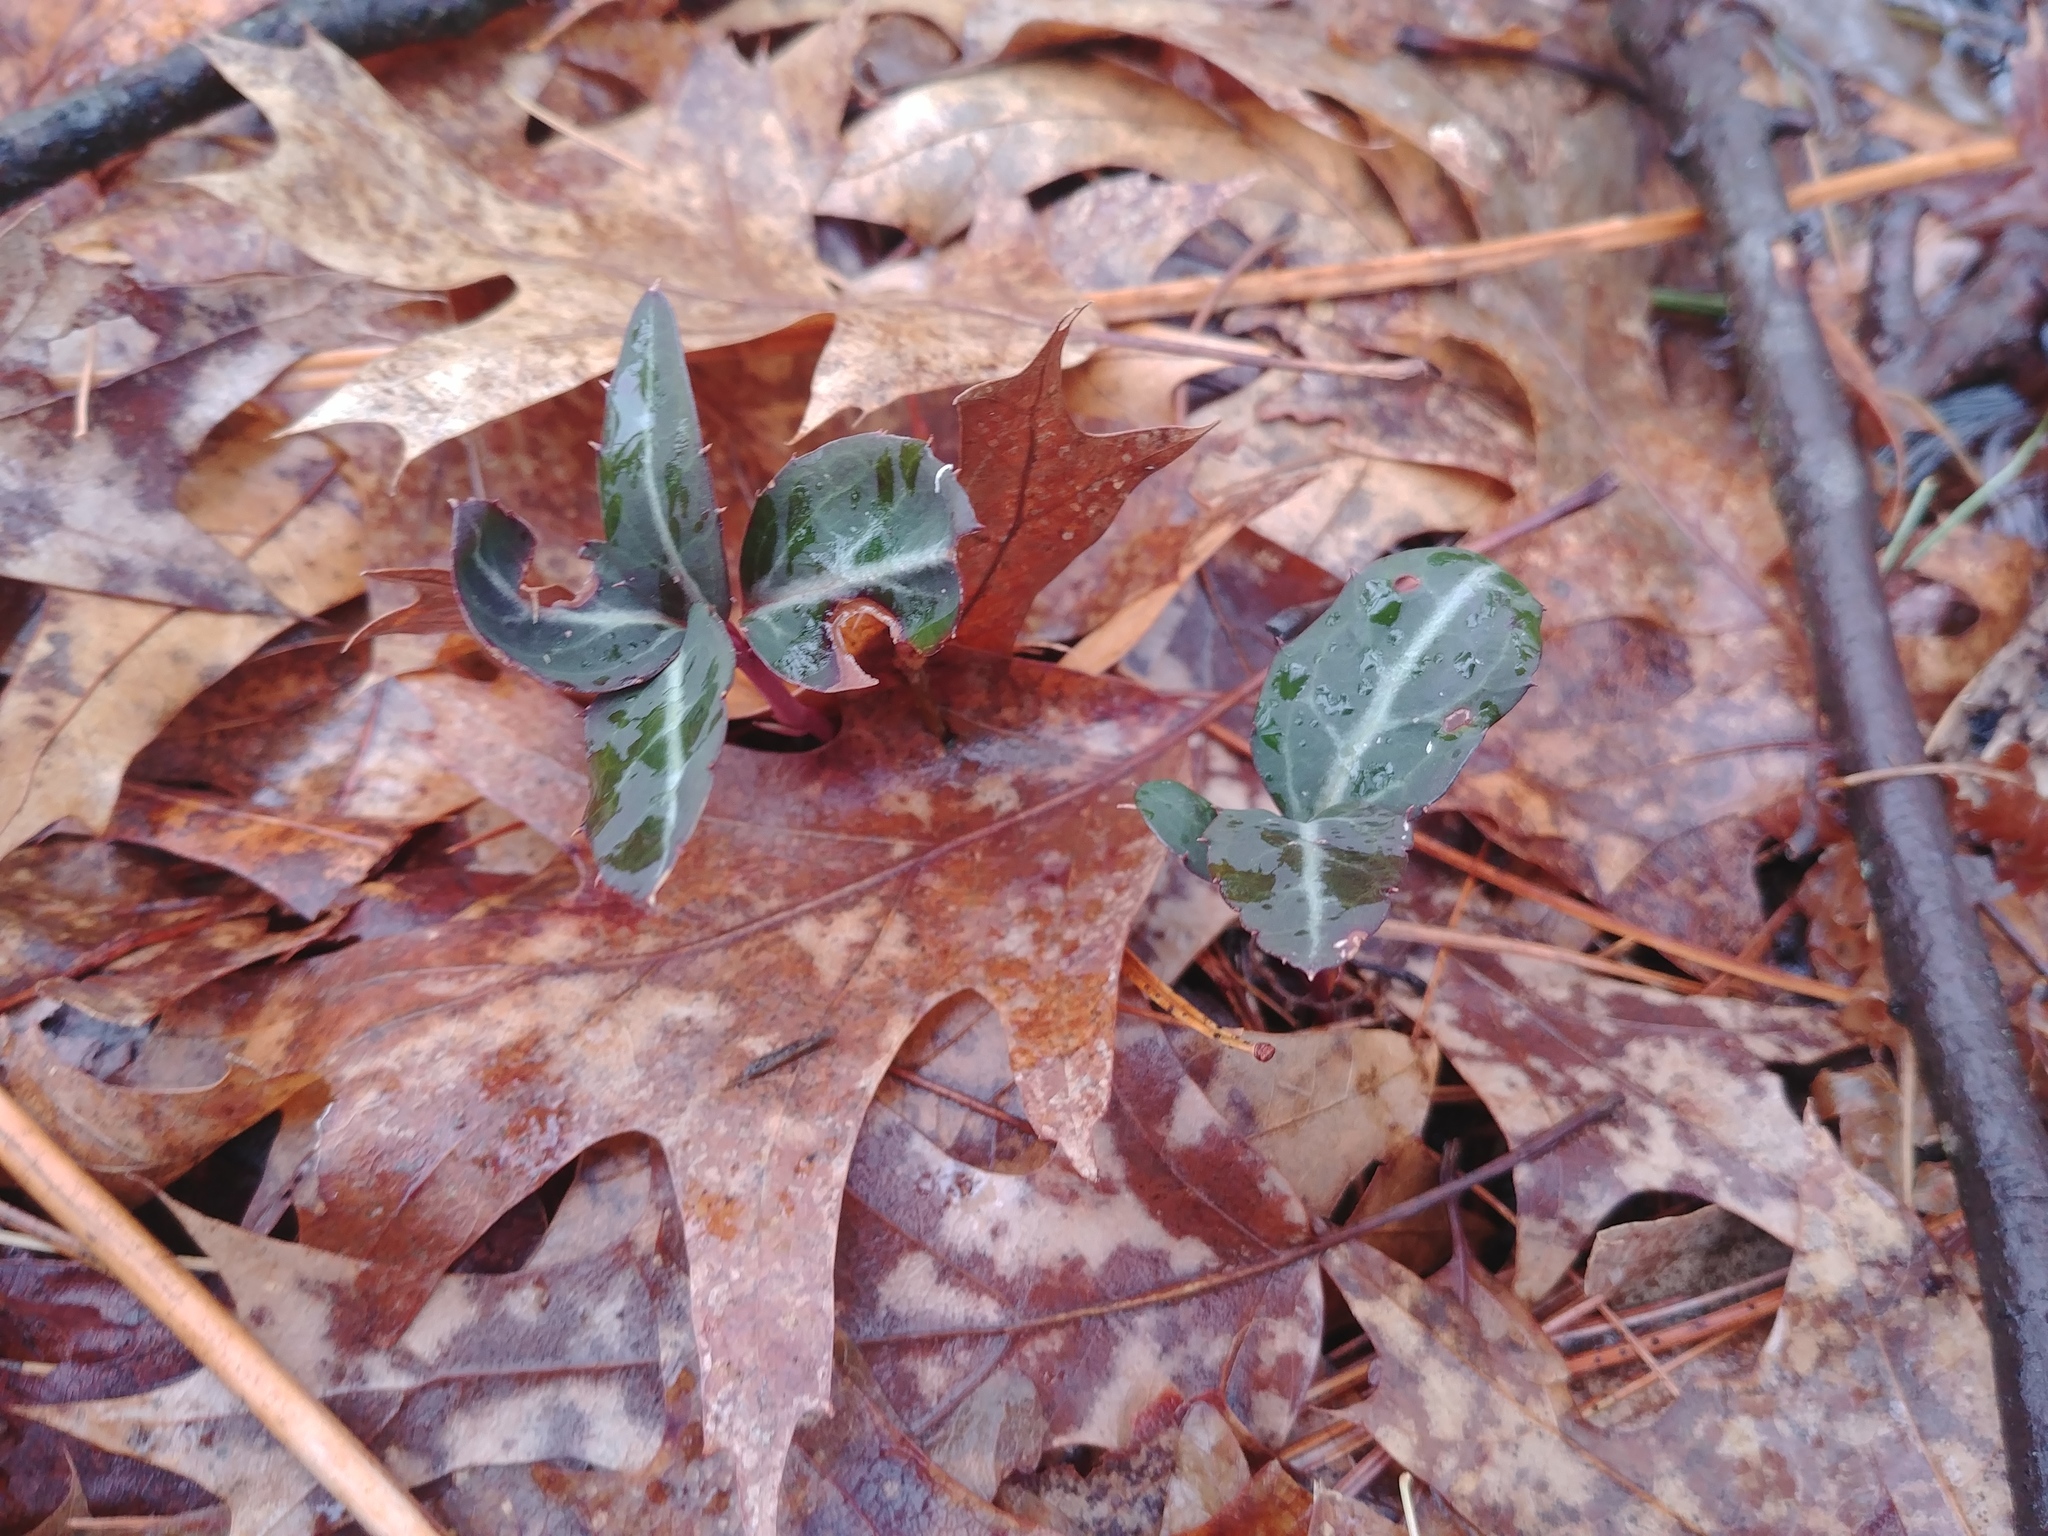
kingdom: Plantae
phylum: Tracheophyta
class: Magnoliopsida
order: Ericales
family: Ericaceae
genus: Chimaphila
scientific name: Chimaphila maculata
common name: Spotted pipsissewa
